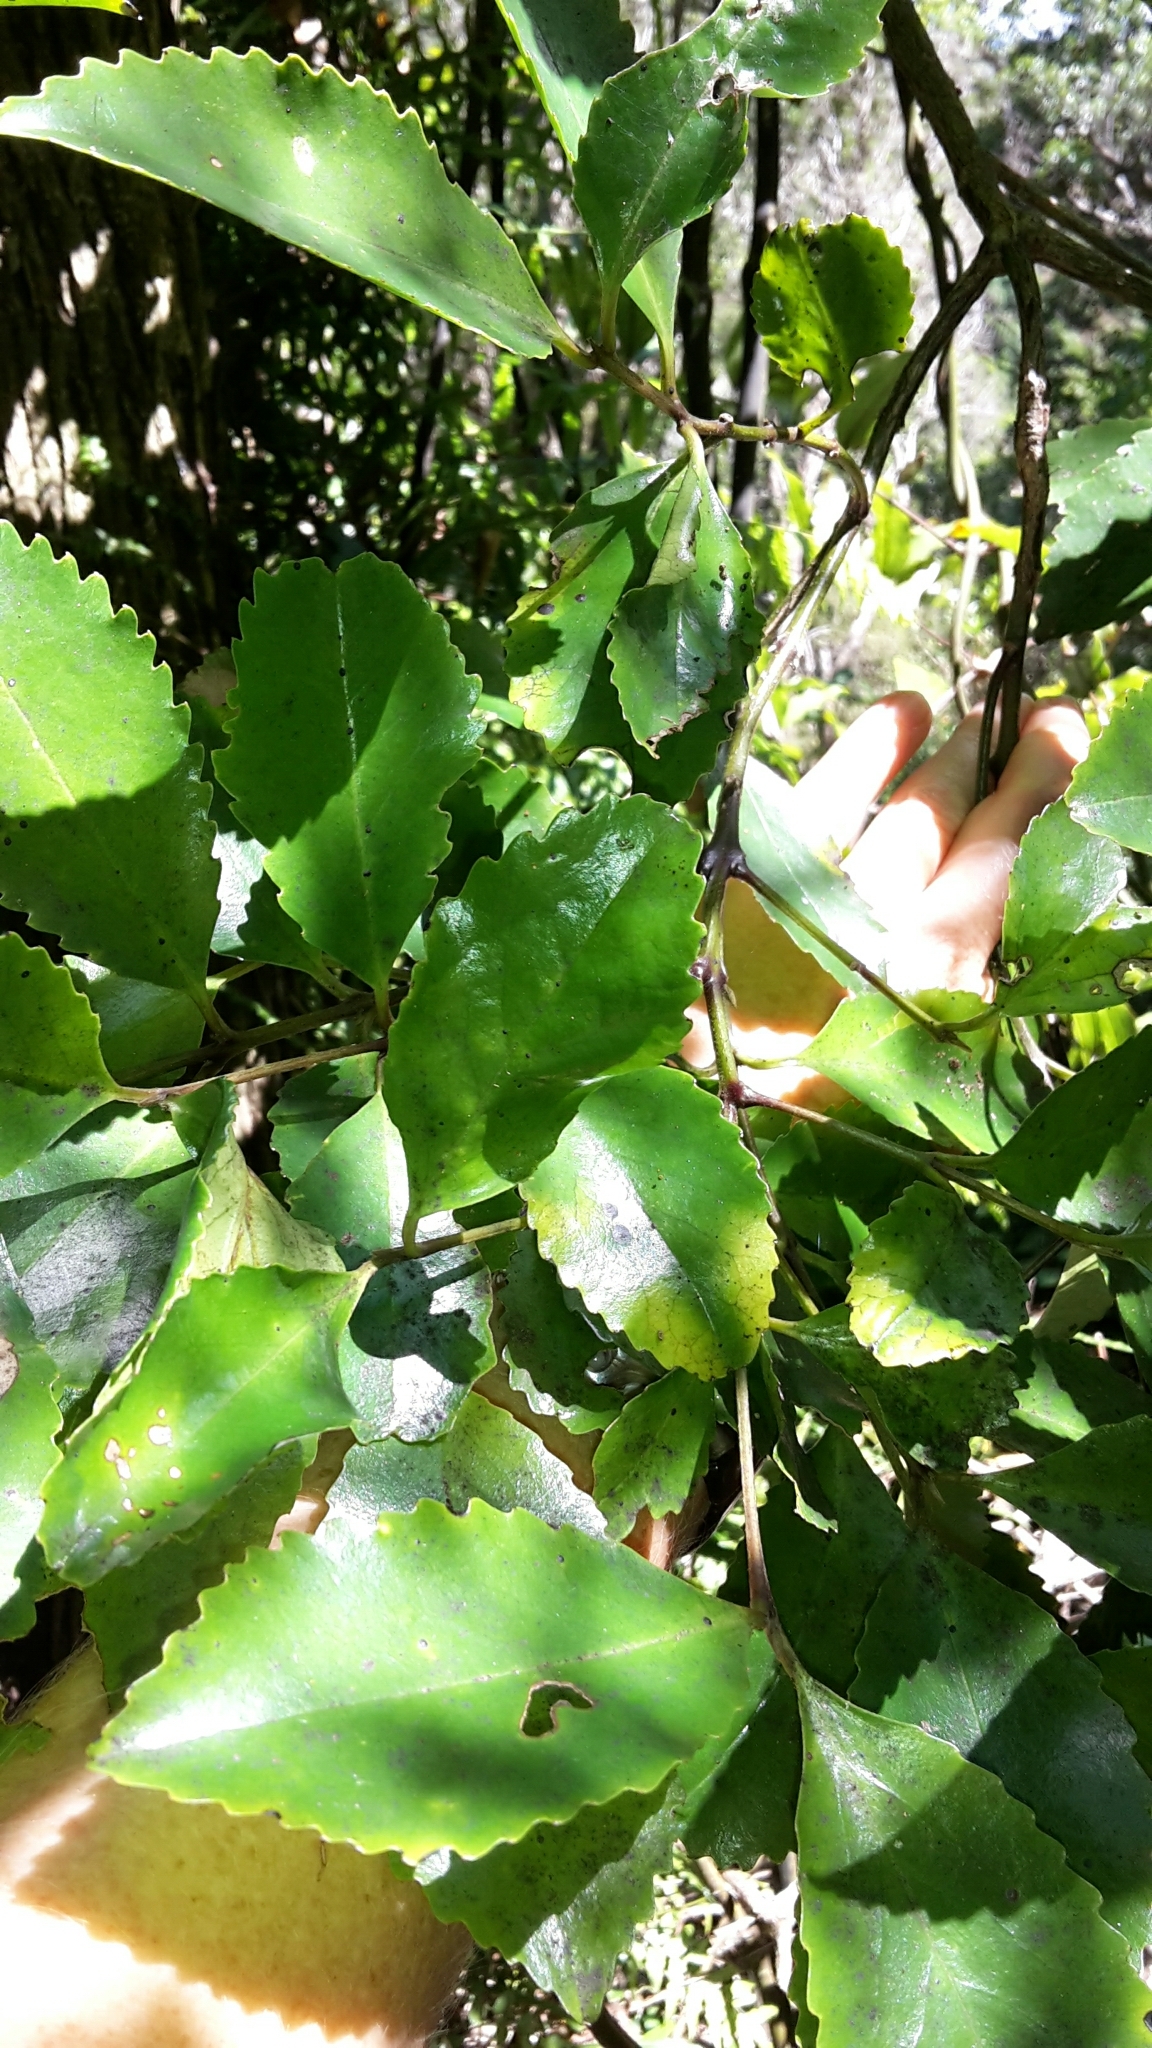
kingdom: Plantae
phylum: Tracheophyta
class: Magnoliopsida
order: Laurales
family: Atherospermataceae
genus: Laurelia
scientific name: Laurelia novae-zelandiae
